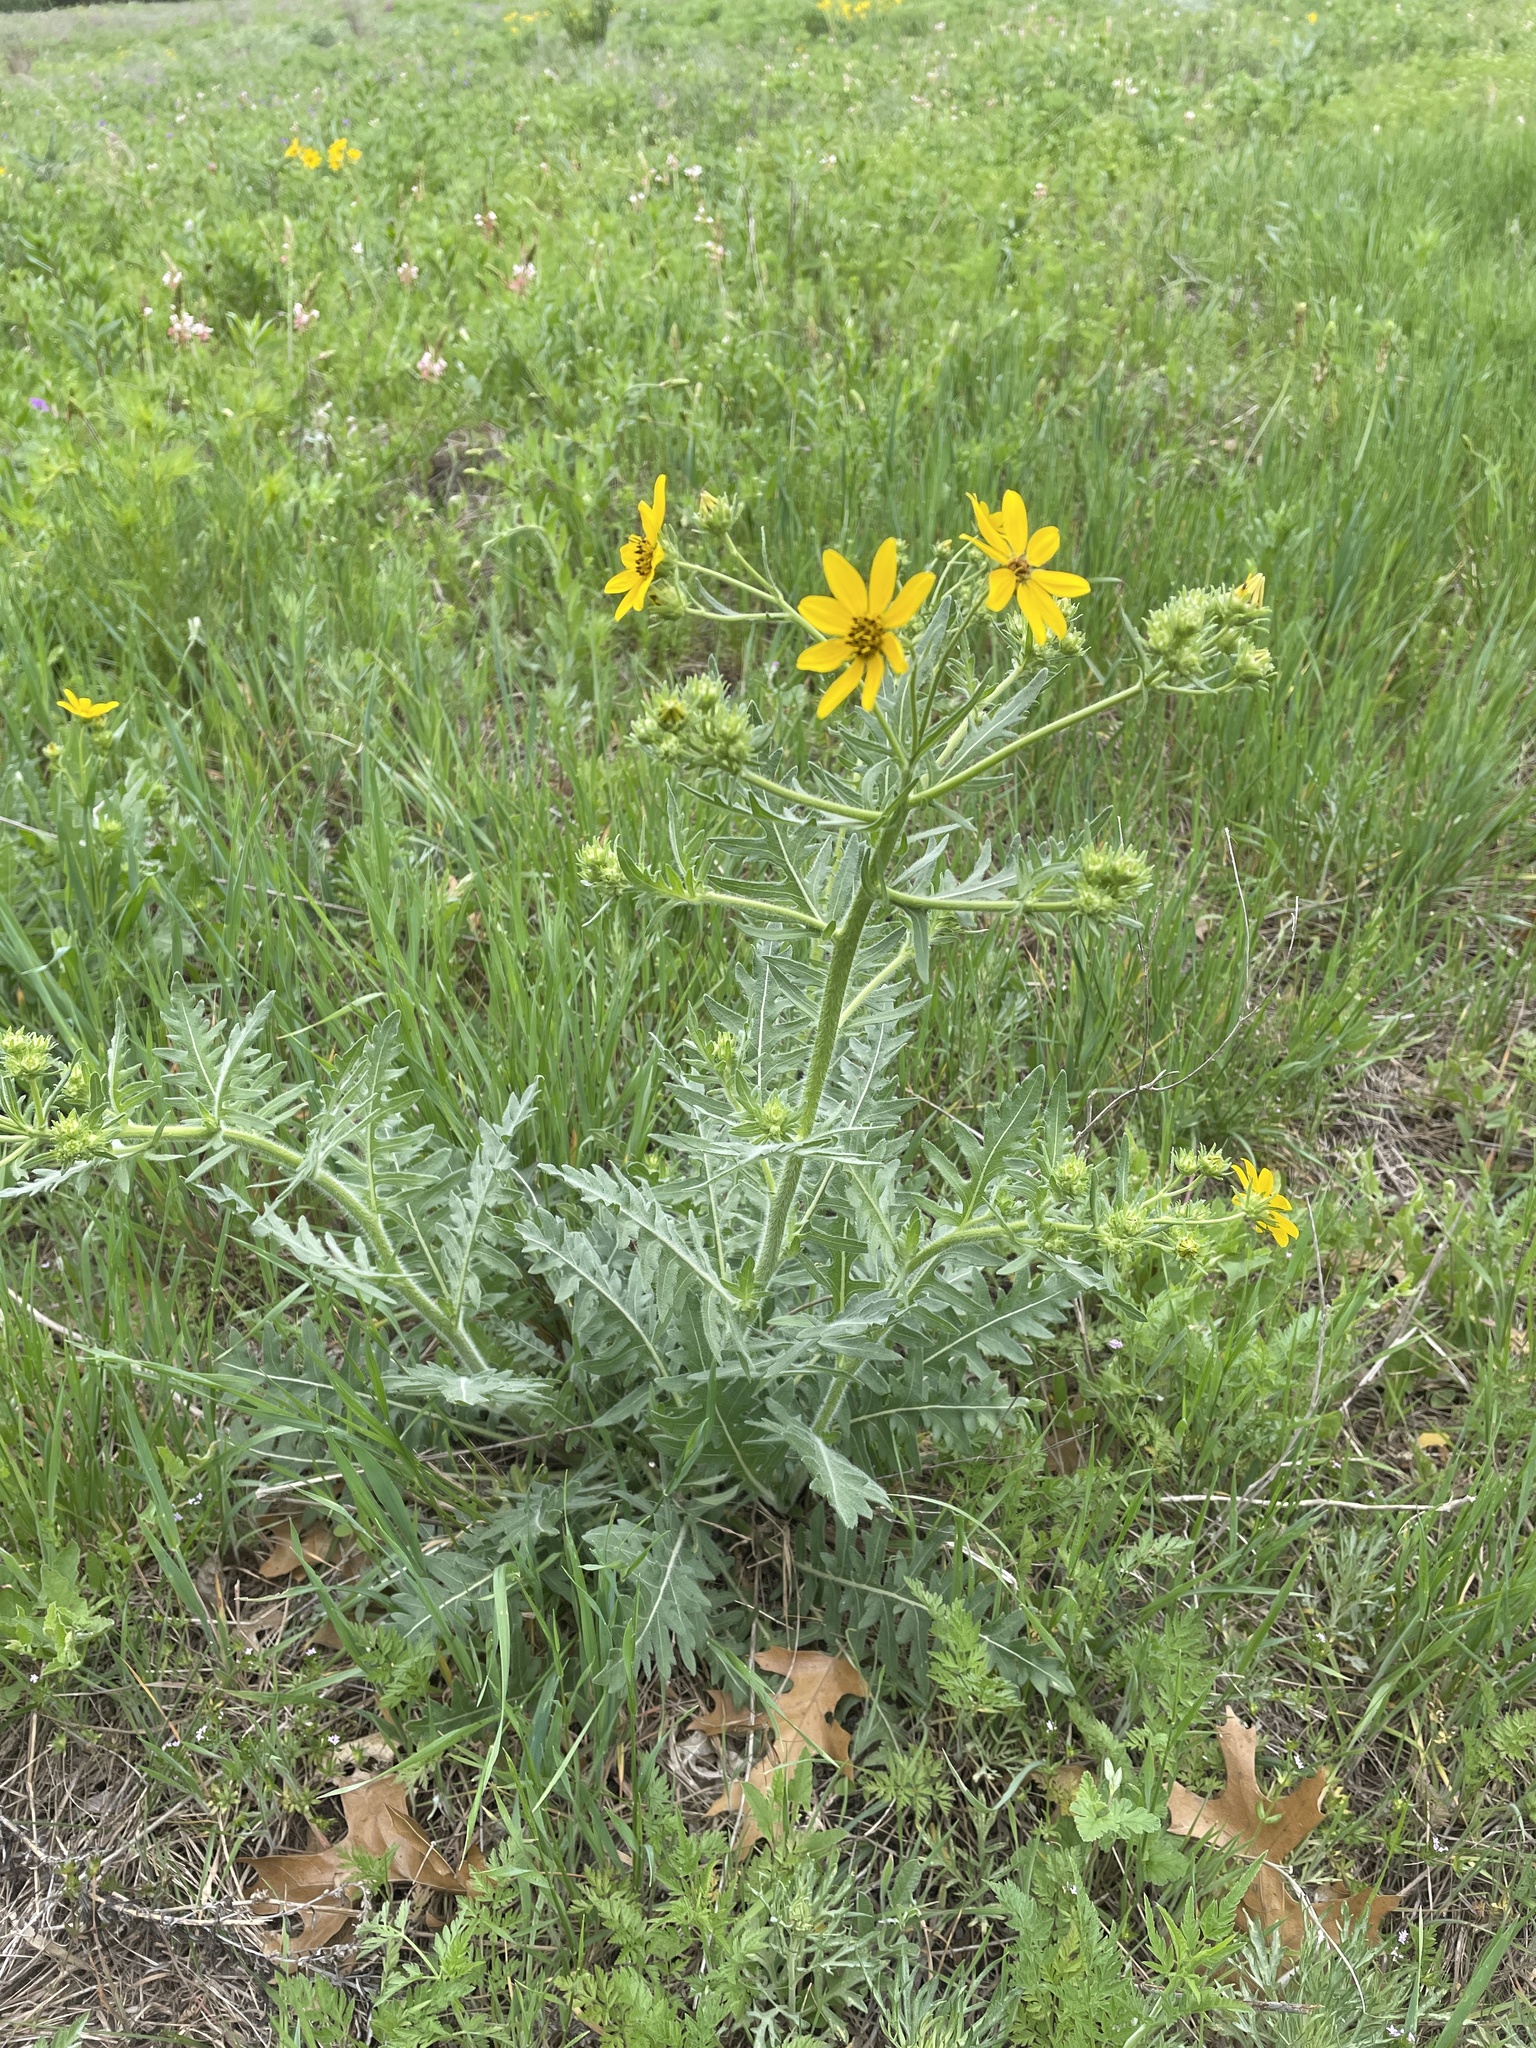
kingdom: Plantae
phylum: Tracheophyta
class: Magnoliopsida
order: Asterales
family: Asteraceae
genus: Engelmannia
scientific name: Engelmannia peristenia
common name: Engelmann's daisy
